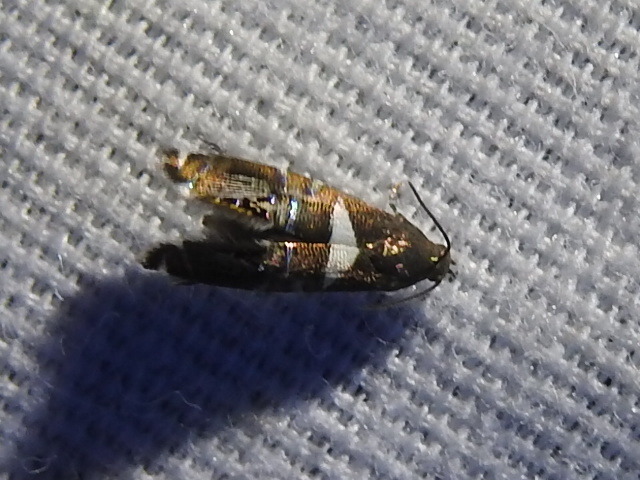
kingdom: Animalia
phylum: Arthropoda
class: Insecta
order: Lepidoptera
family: Glyphipterigidae
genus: Glyphipterix
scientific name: Glyphipterix circumscriptella
